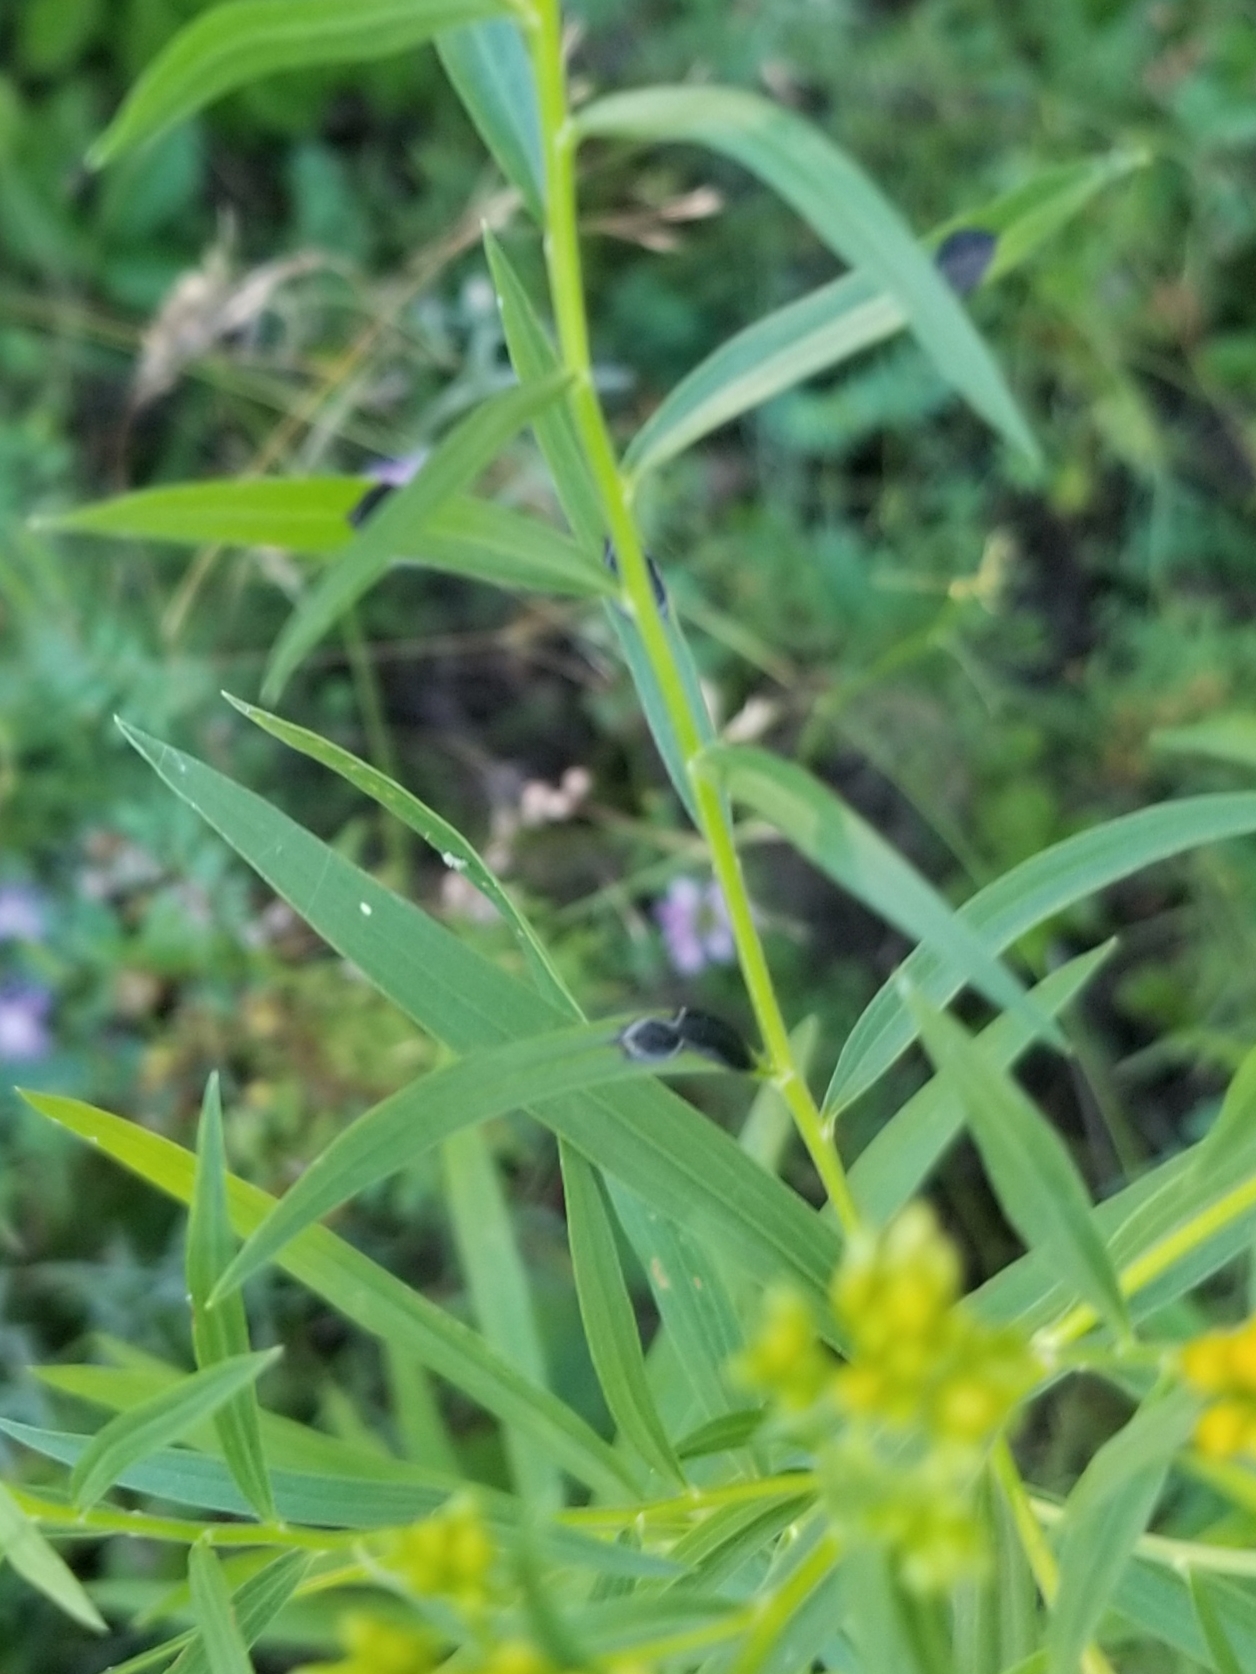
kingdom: Animalia
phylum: Arthropoda
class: Insecta
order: Diptera
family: Cecidomyiidae
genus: Asteromyia
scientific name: Asteromyia euthamiae
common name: Euthamia leaf gall midge
